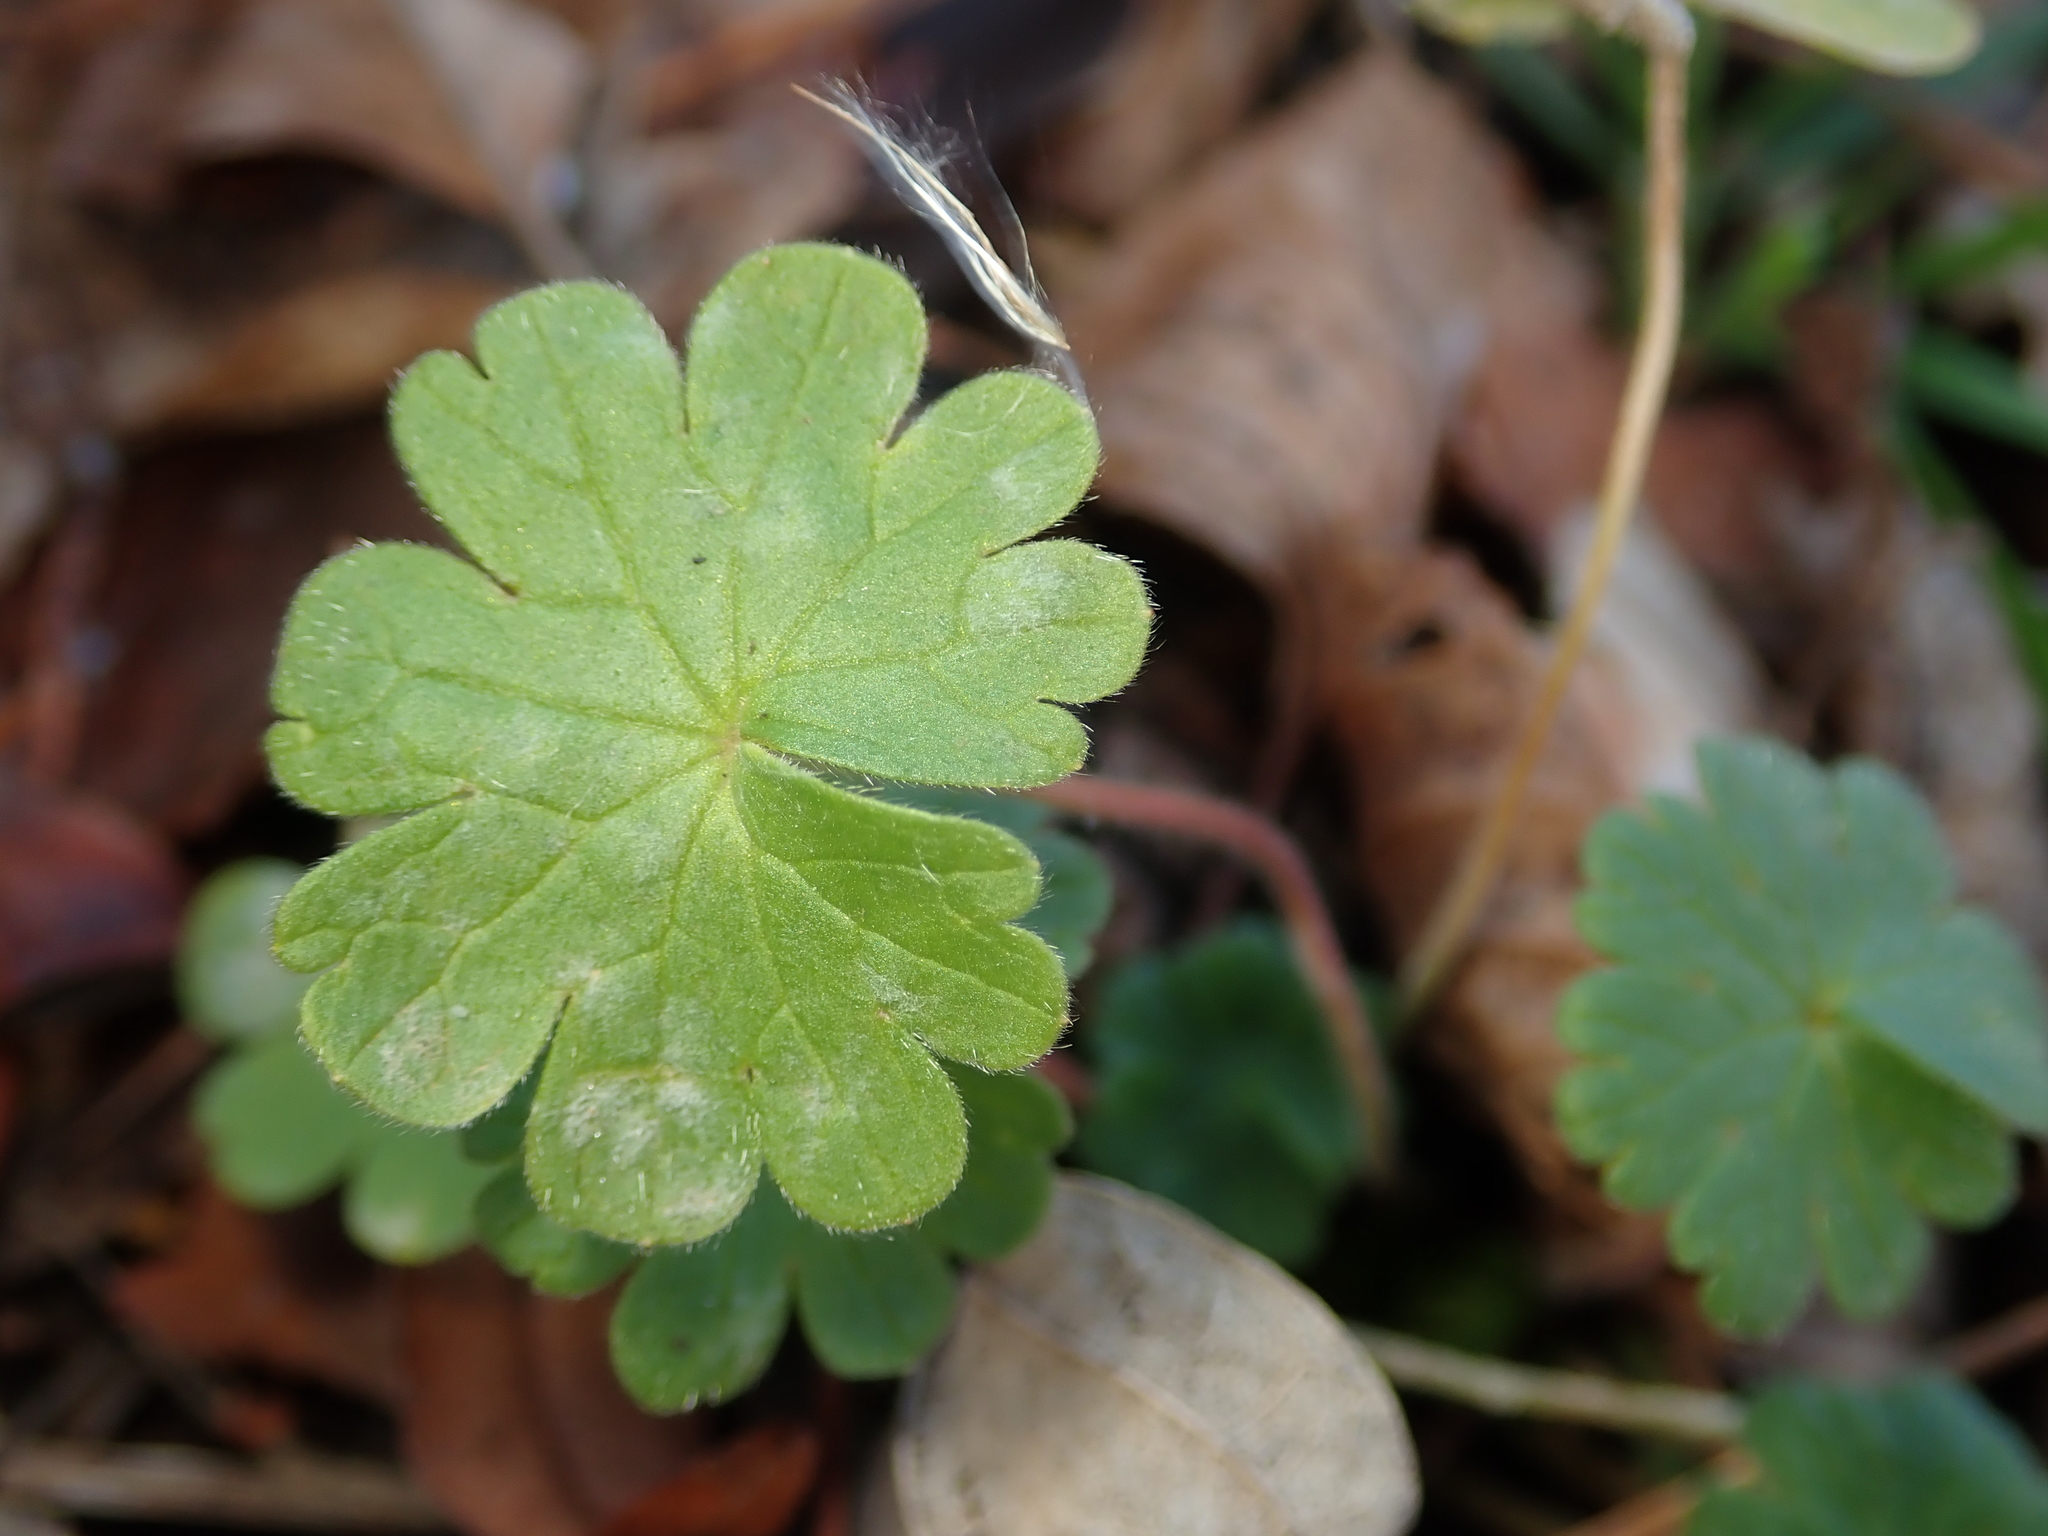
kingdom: Plantae
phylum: Tracheophyta
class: Magnoliopsida
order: Geraniales
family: Geraniaceae
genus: Geranium
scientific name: Geranium molle
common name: Dove's-foot crane's-bill
